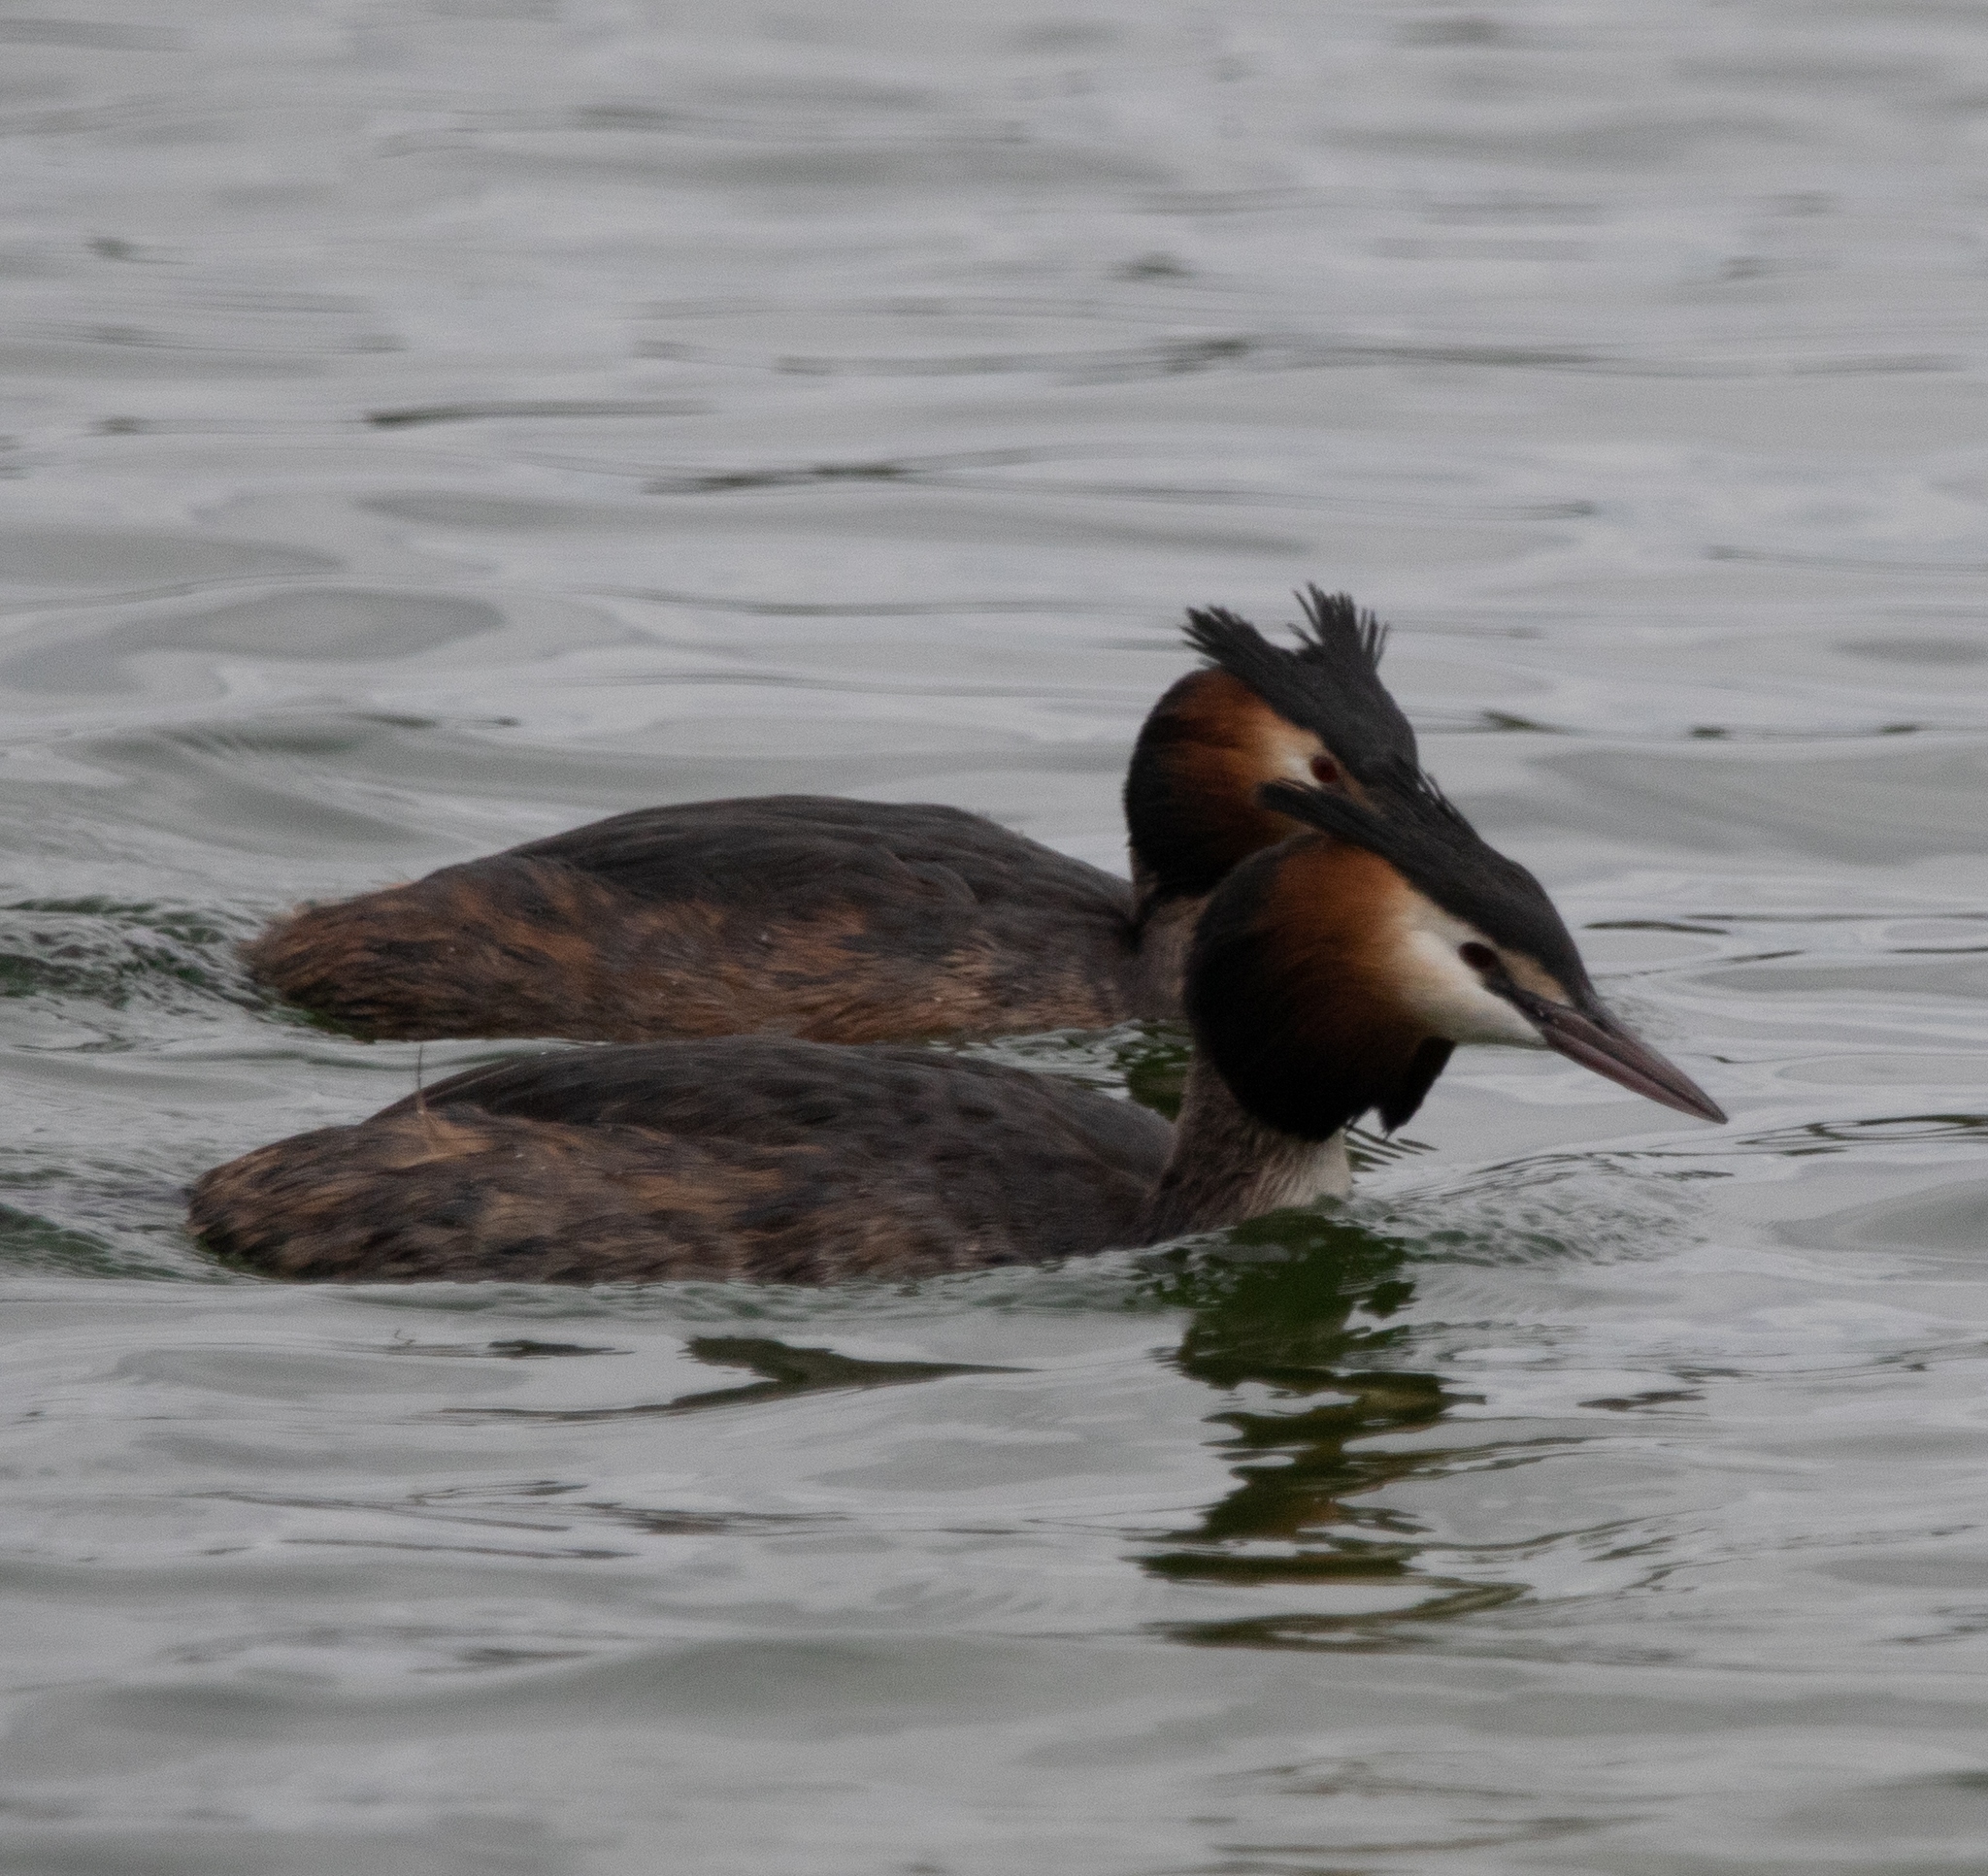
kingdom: Animalia
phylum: Chordata
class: Aves
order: Podicipediformes
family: Podicipedidae
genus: Podiceps
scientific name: Podiceps cristatus
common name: Great crested grebe
